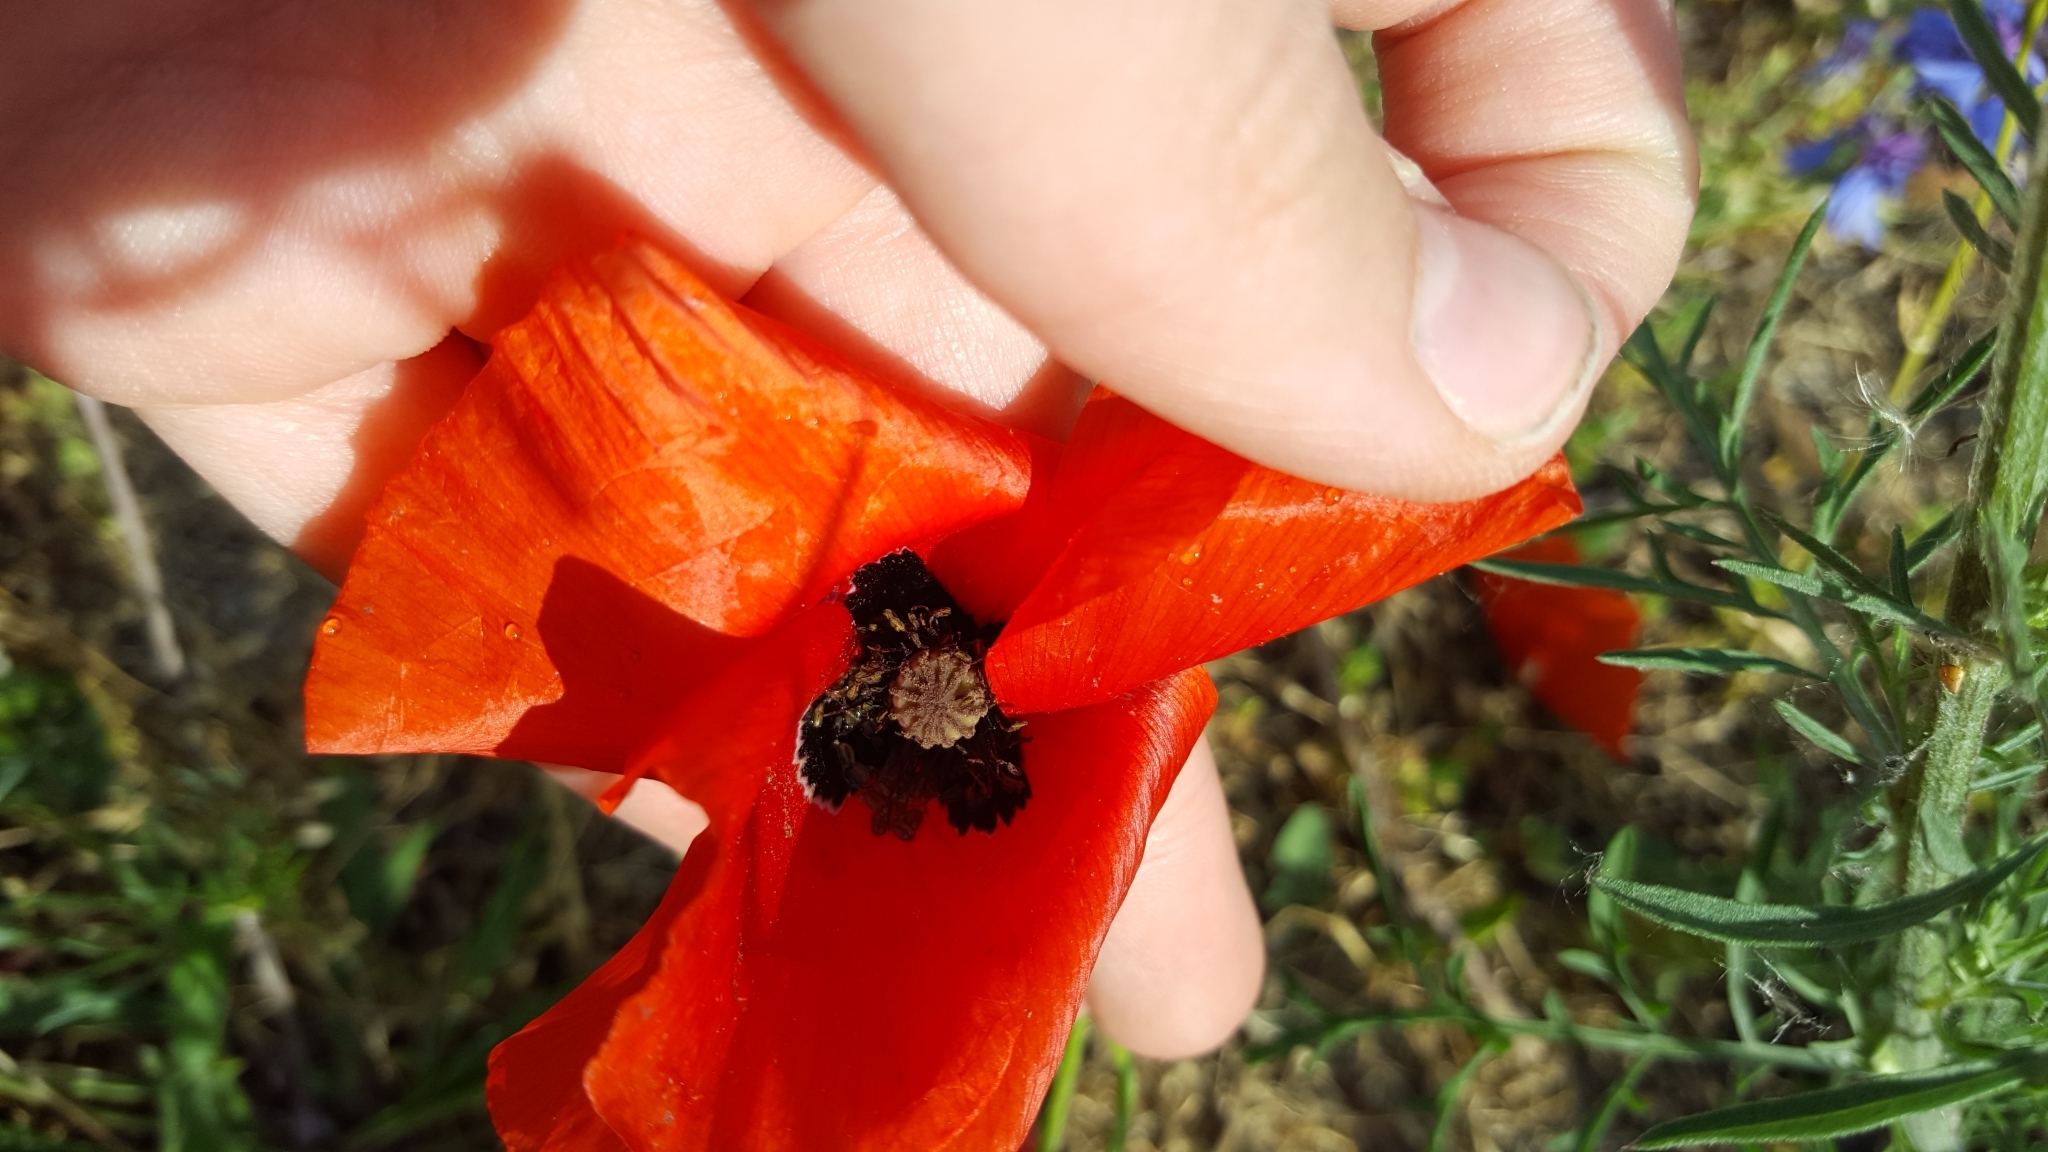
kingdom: Plantae
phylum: Tracheophyta
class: Magnoliopsida
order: Ranunculales
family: Papaveraceae
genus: Papaver
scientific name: Papaver rhoeas
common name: Corn poppy
